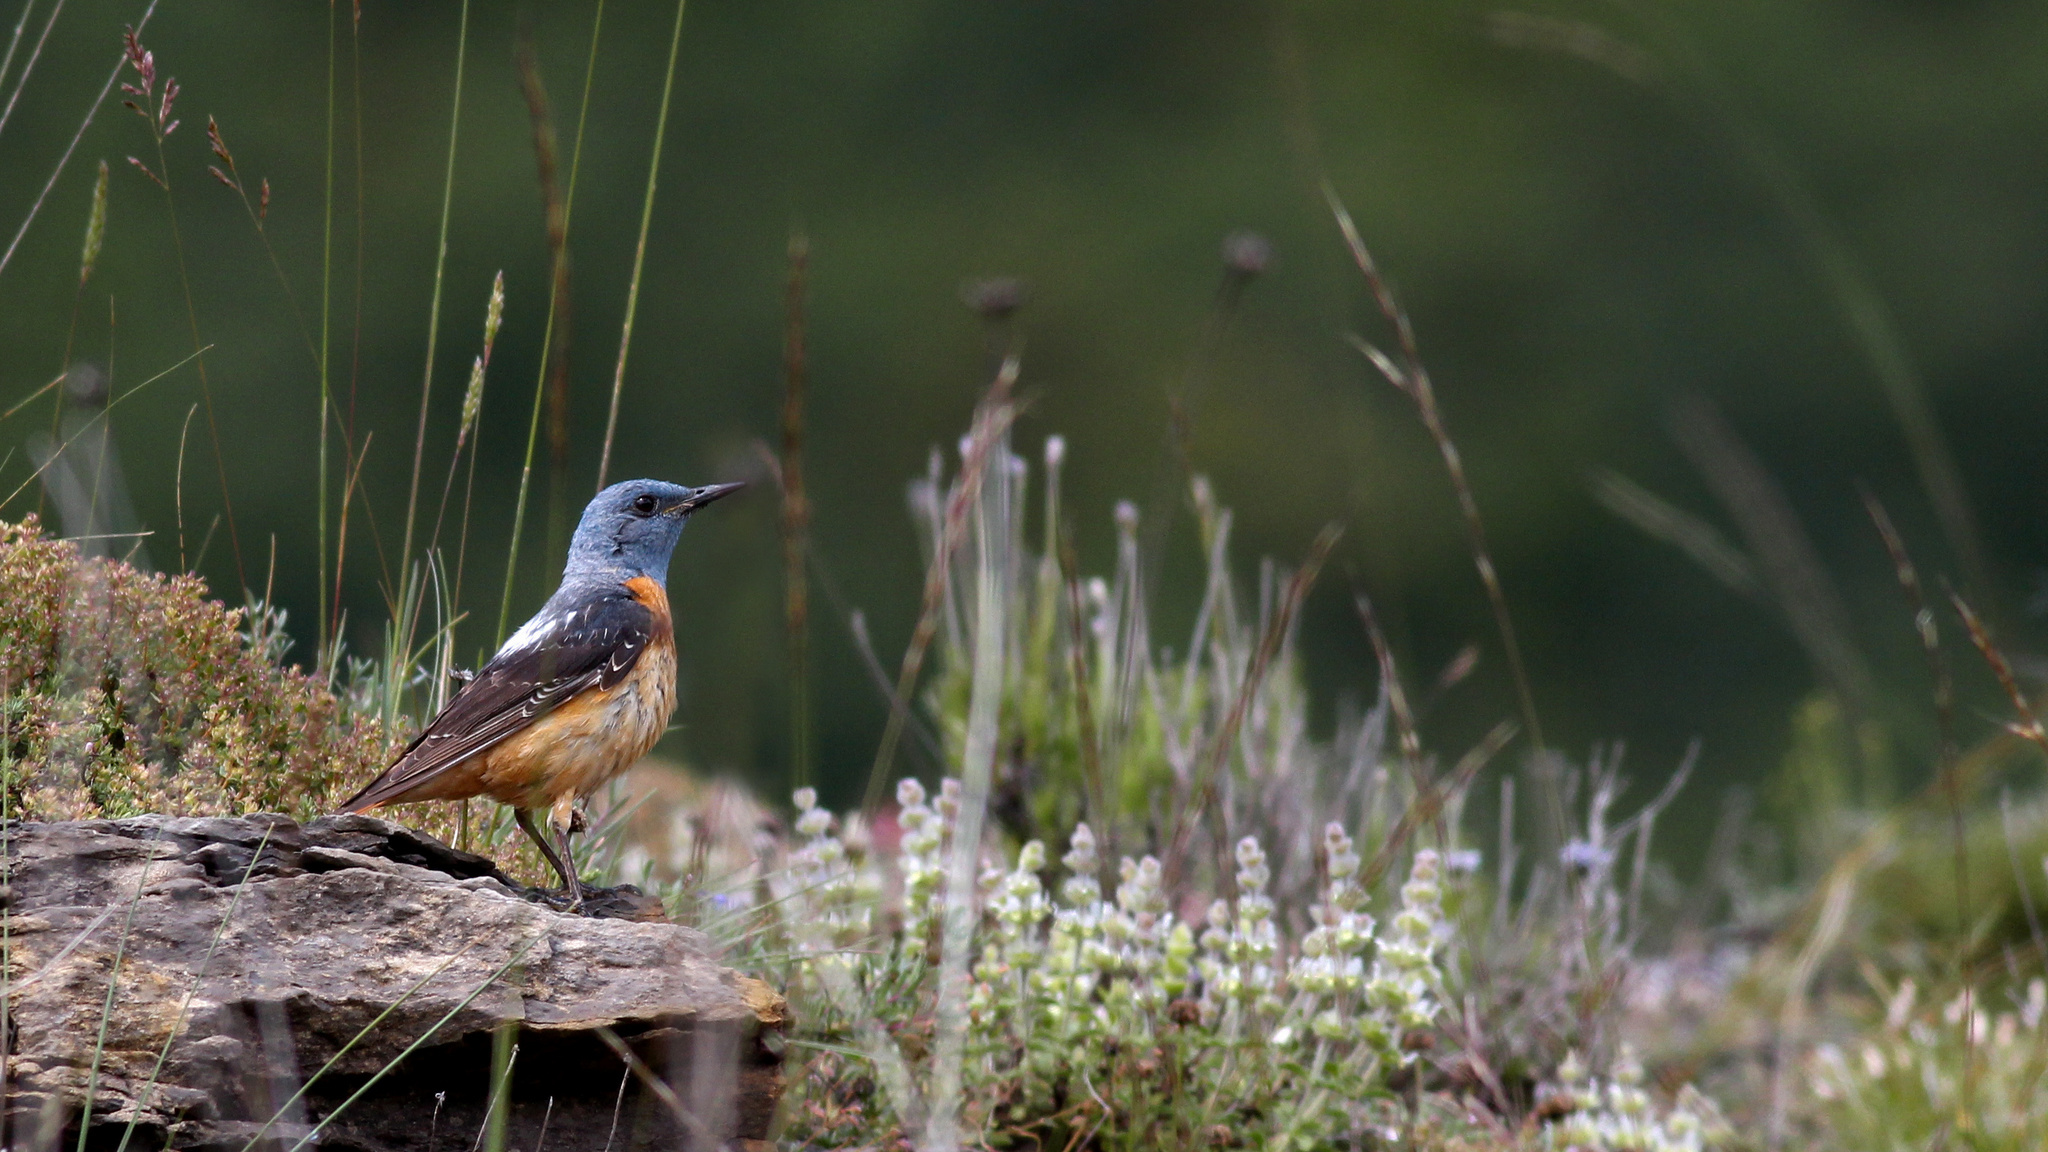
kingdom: Animalia
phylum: Chordata
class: Aves
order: Passeriformes
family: Muscicapidae
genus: Monticola
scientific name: Monticola saxatilis
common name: Rufous-tailed rock thrush
